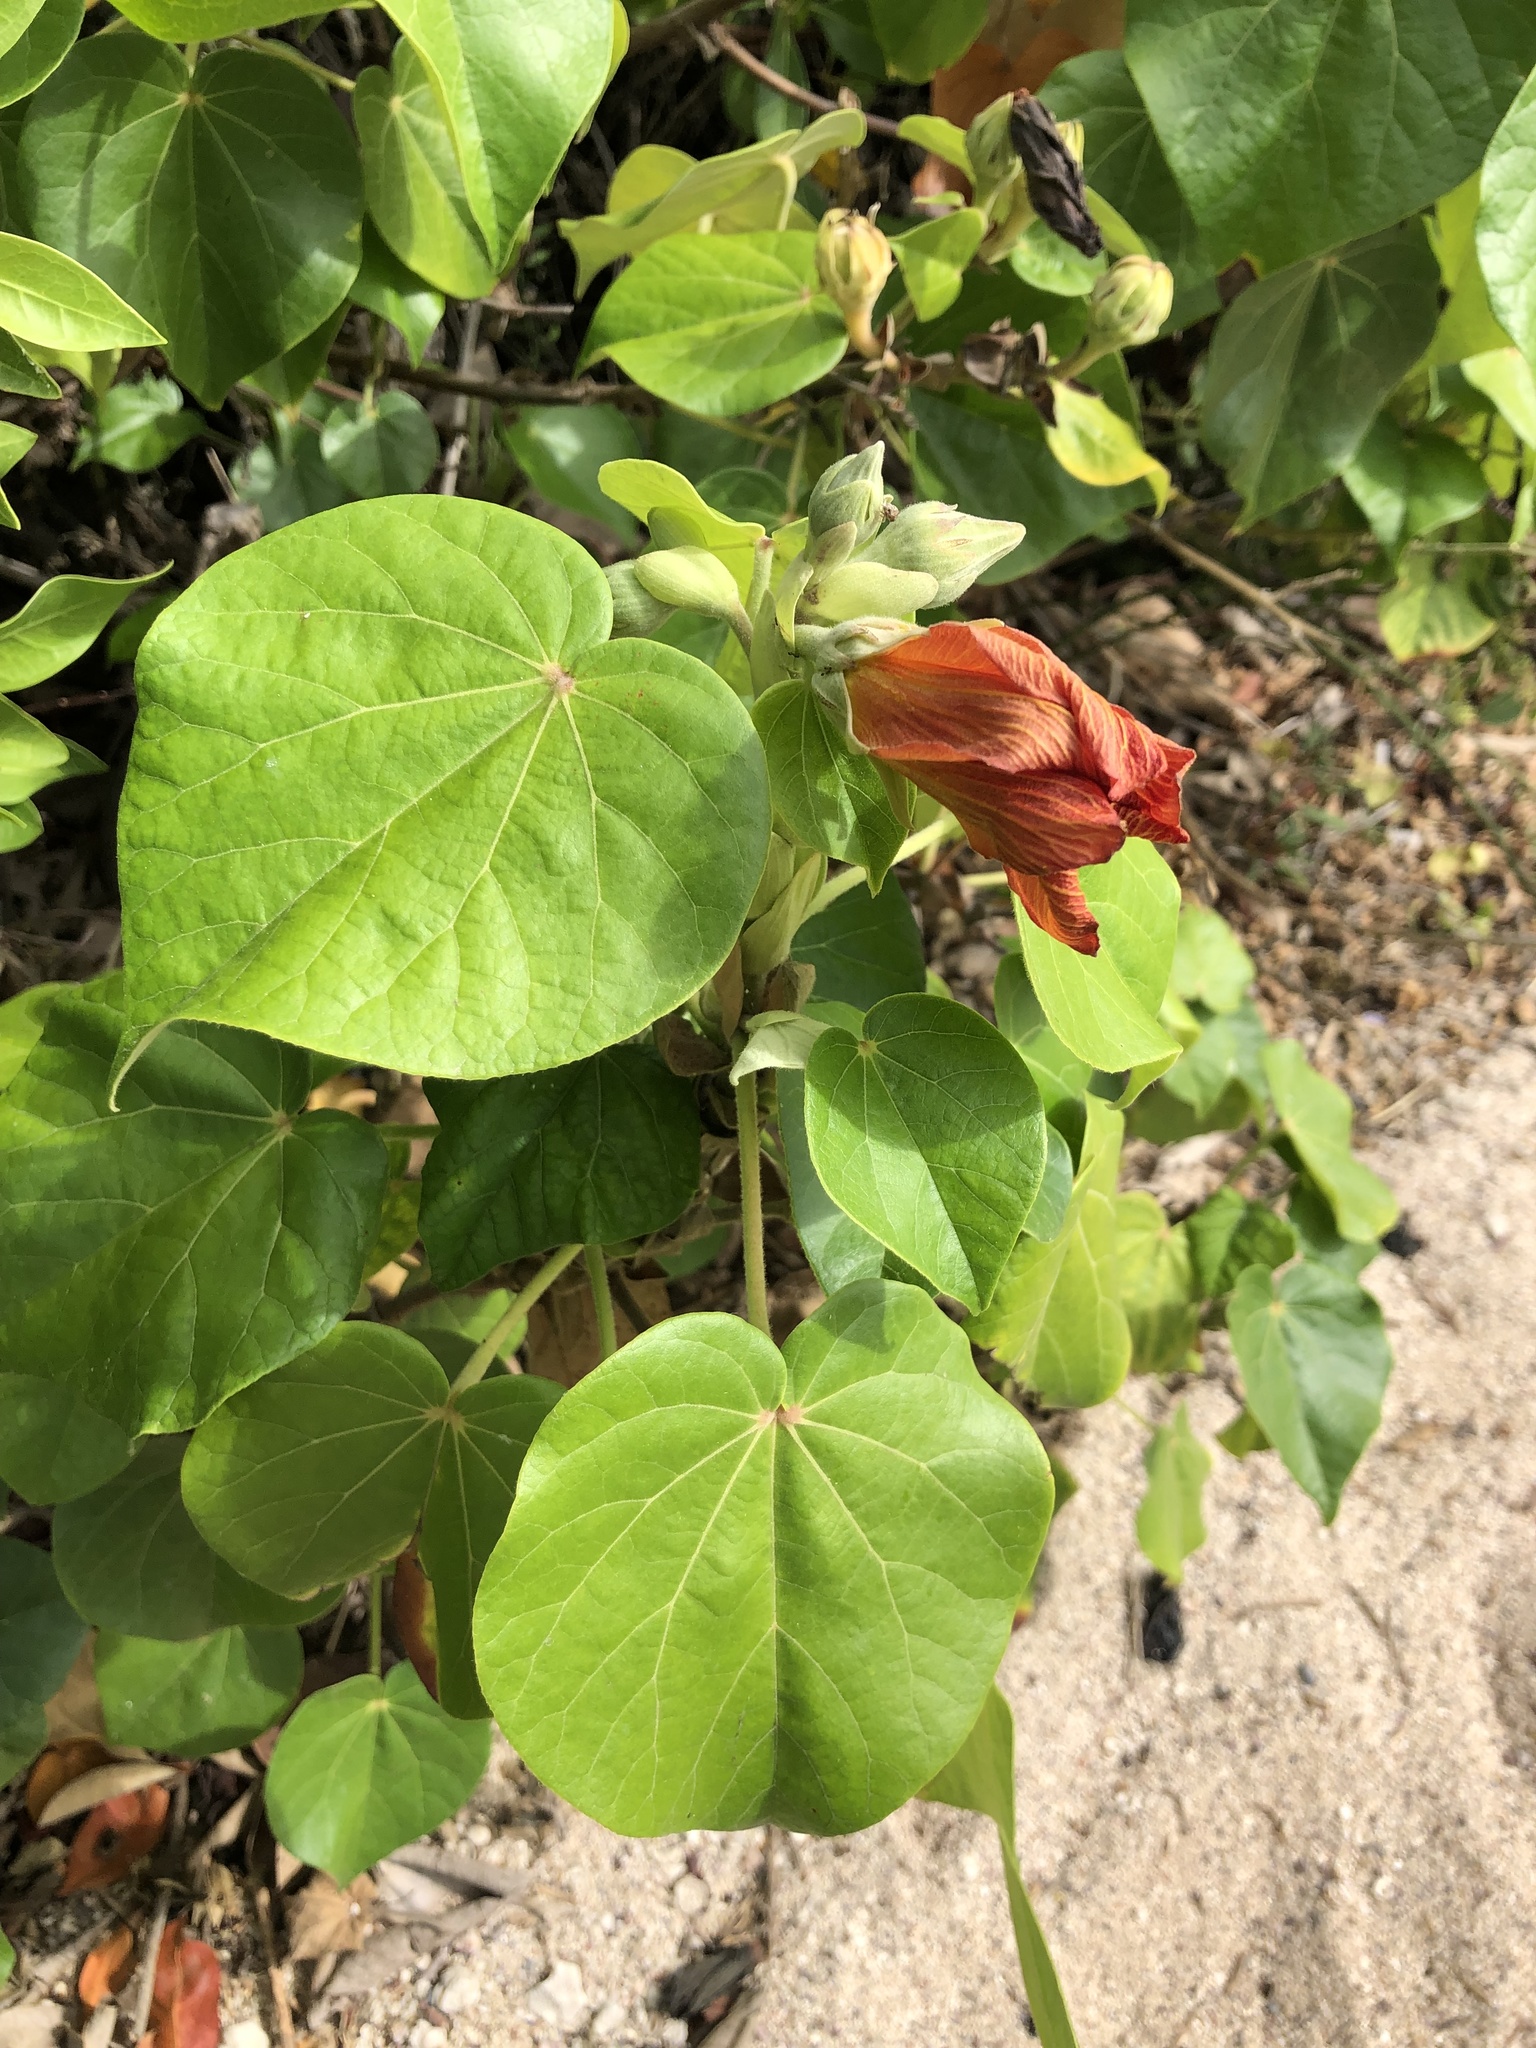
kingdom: Plantae
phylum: Tracheophyta
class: Magnoliopsida
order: Malvales
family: Malvaceae
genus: Talipariti
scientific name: Talipariti tiliaceum
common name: Sea hibiscus
